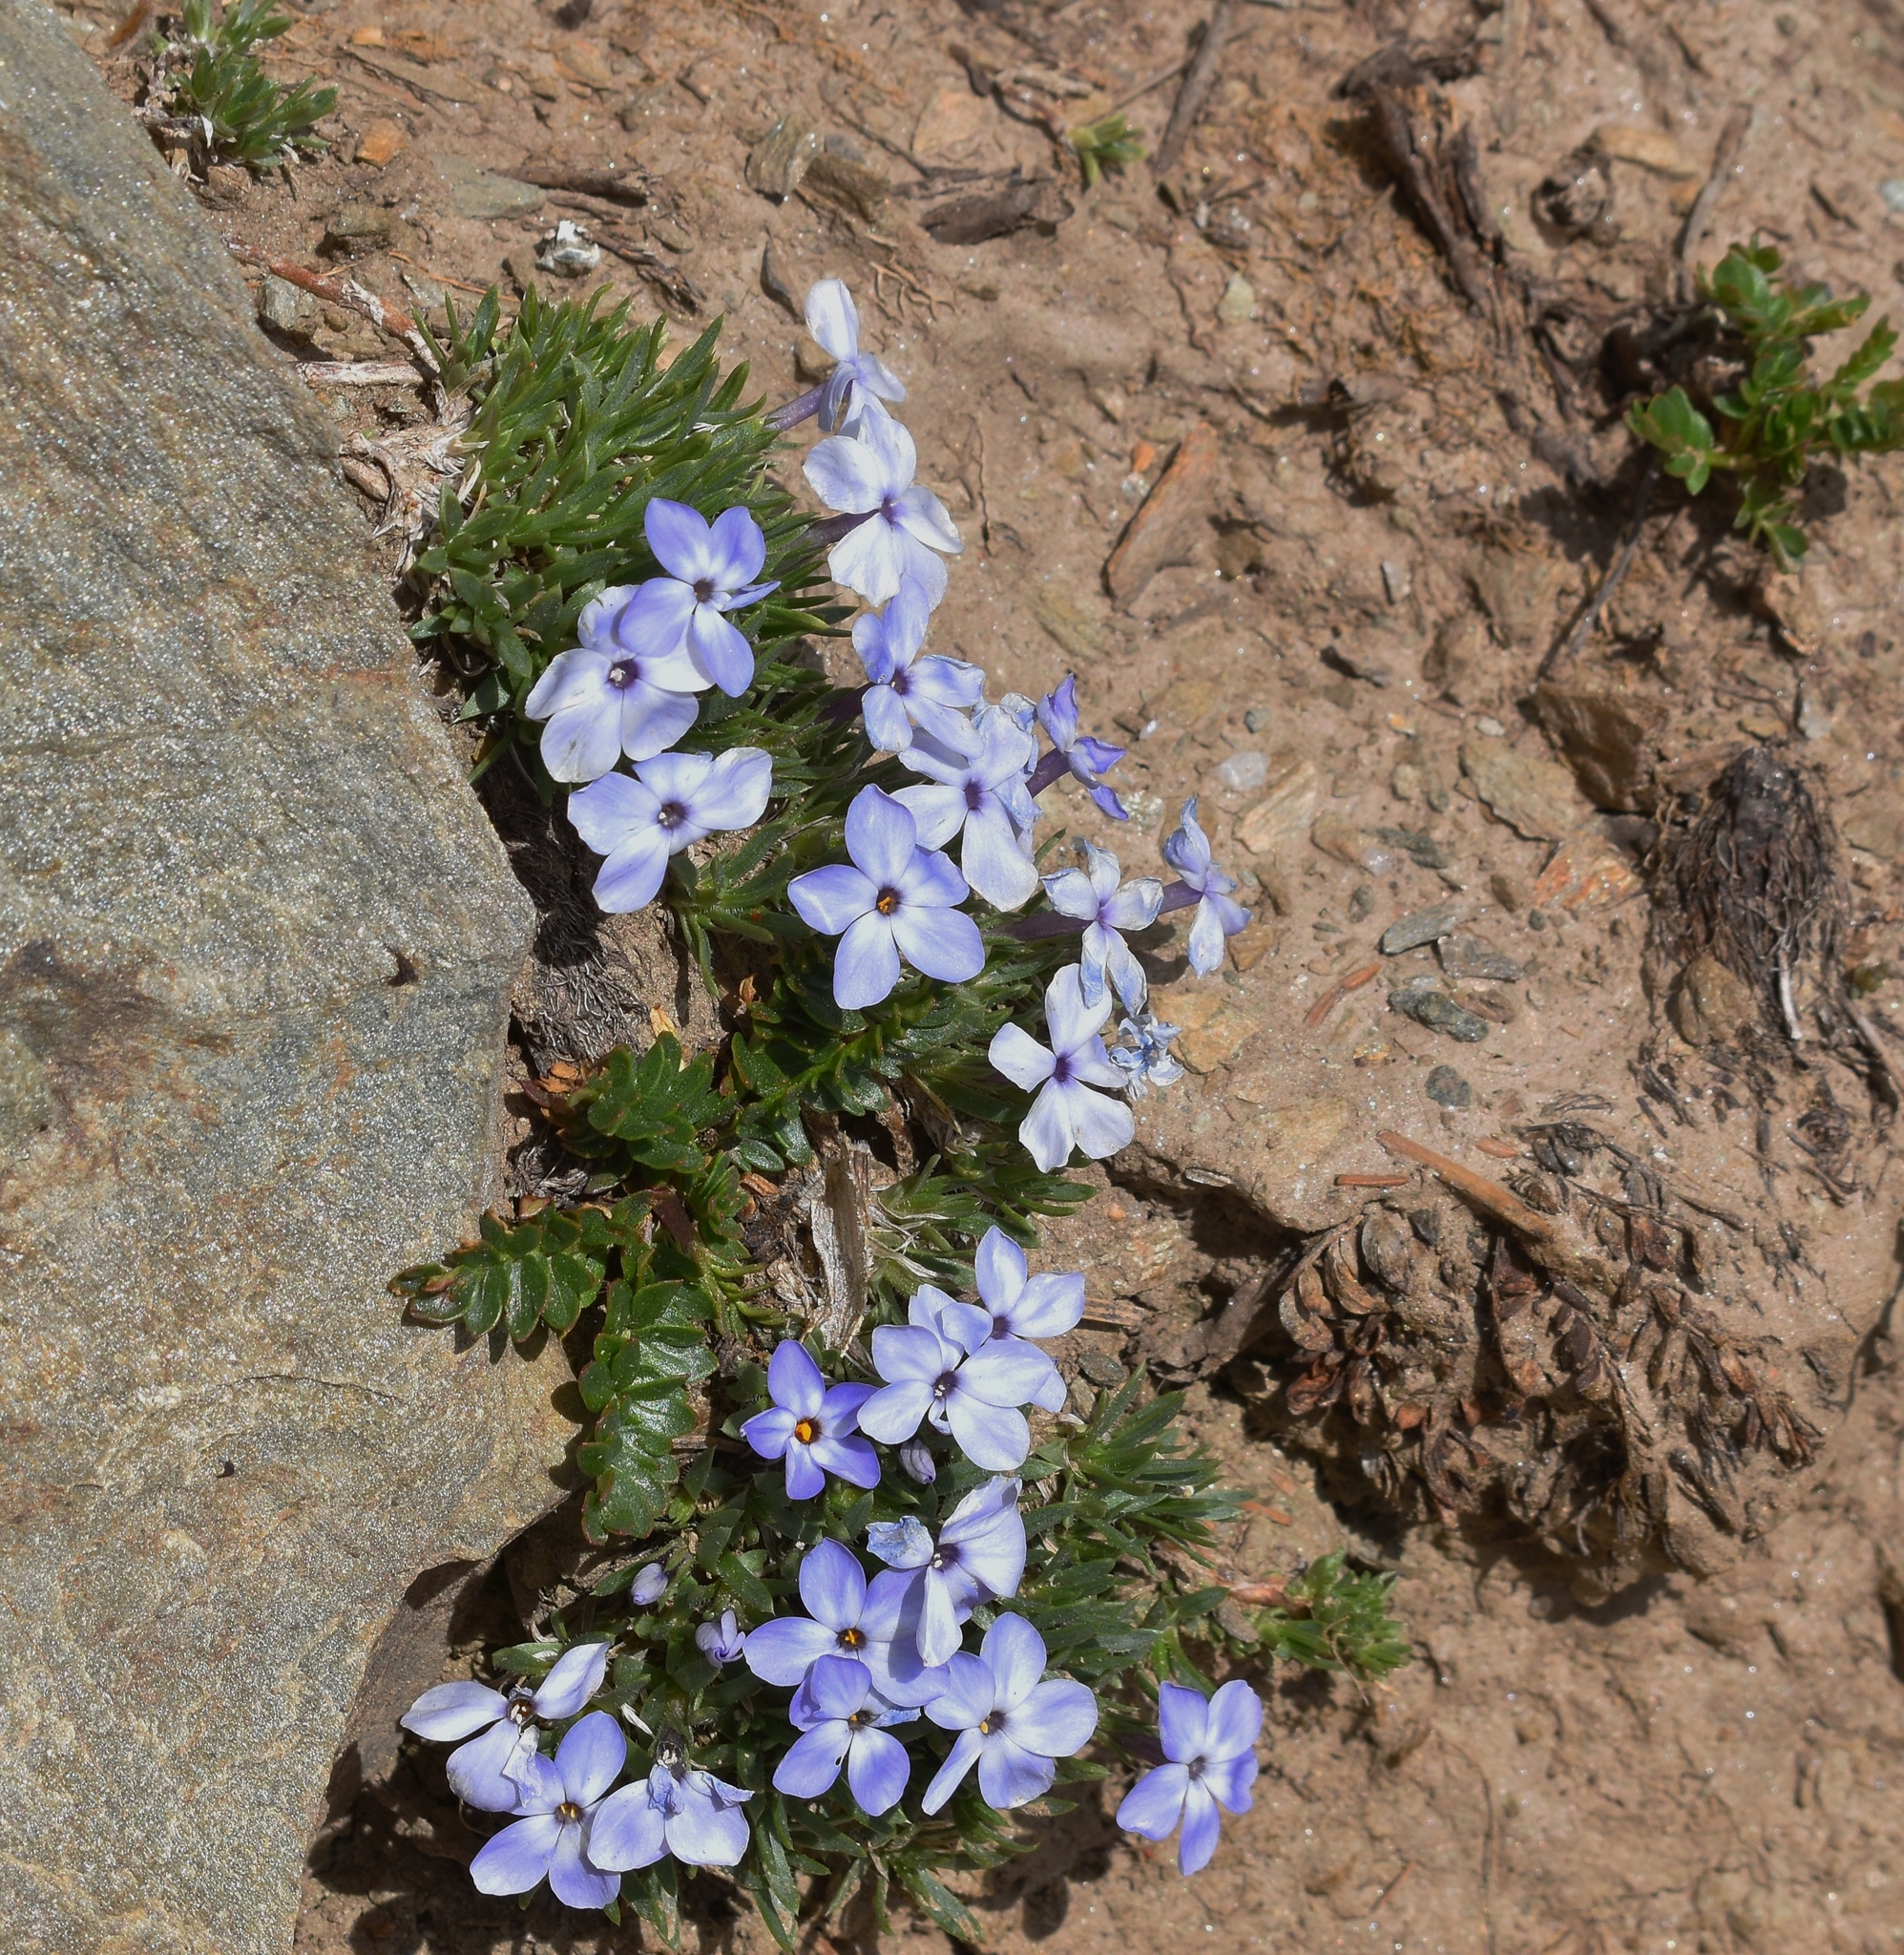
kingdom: Plantae
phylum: Tracheophyta
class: Magnoliopsida
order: Ericales
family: Polemoniaceae
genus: Phlox
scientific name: Phlox condensata
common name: Compact phlox
